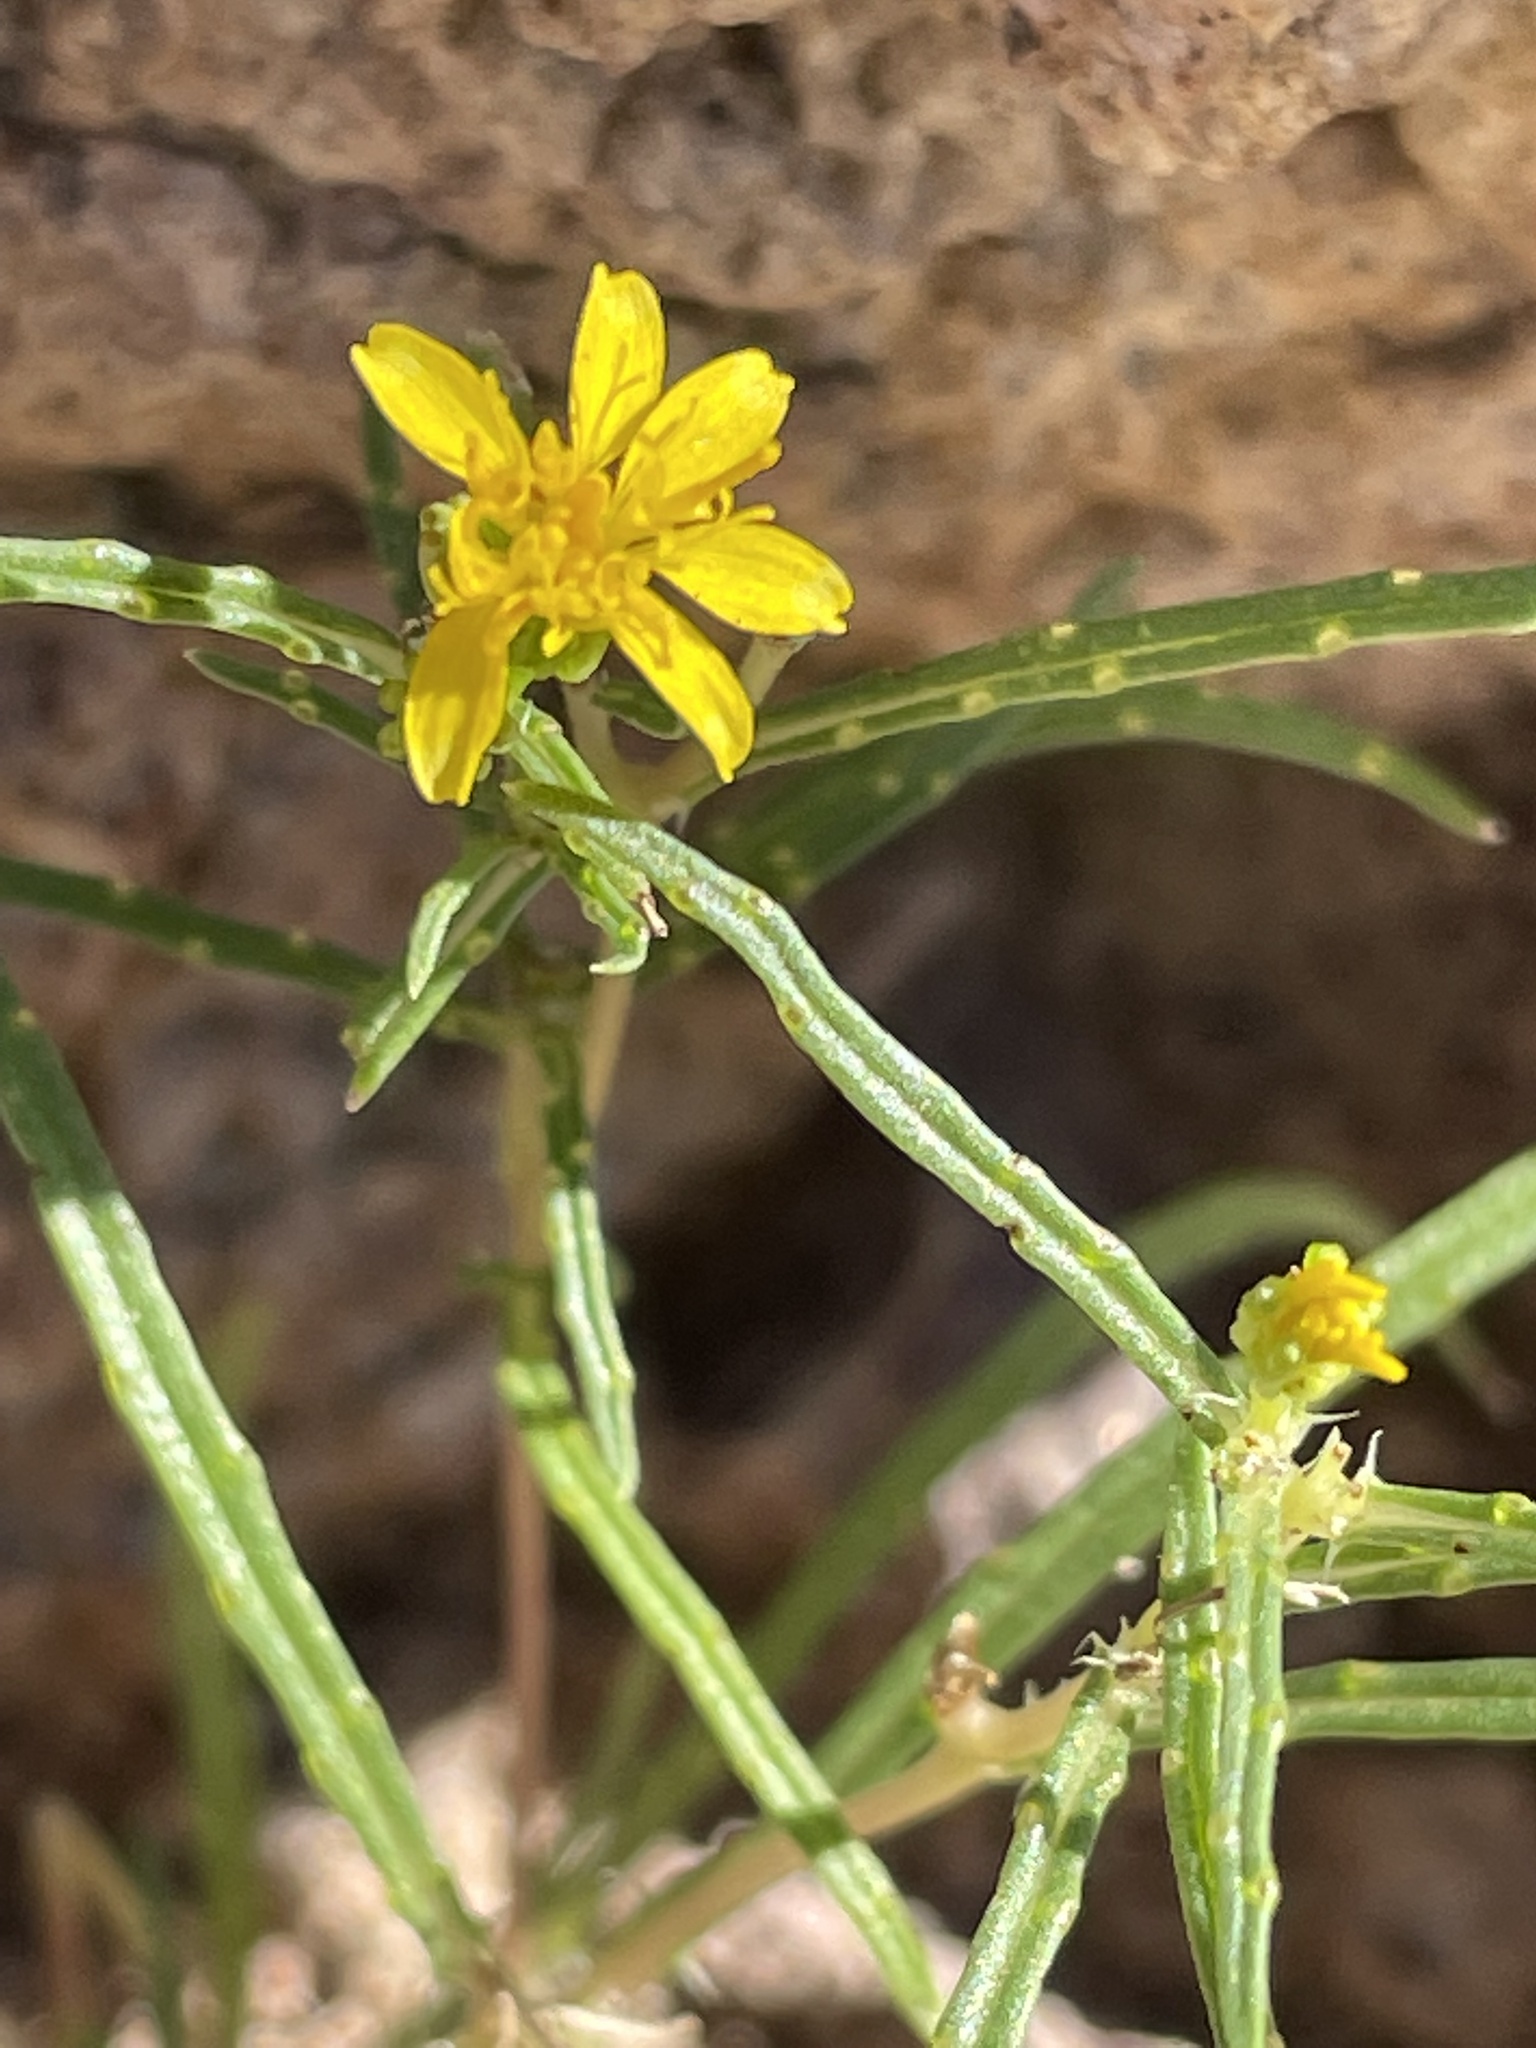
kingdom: Plantae
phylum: Tracheophyta
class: Magnoliopsida
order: Asterales
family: Asteraceae
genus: Pectis
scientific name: Pectis papposa
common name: Many-bristle chinchweed
